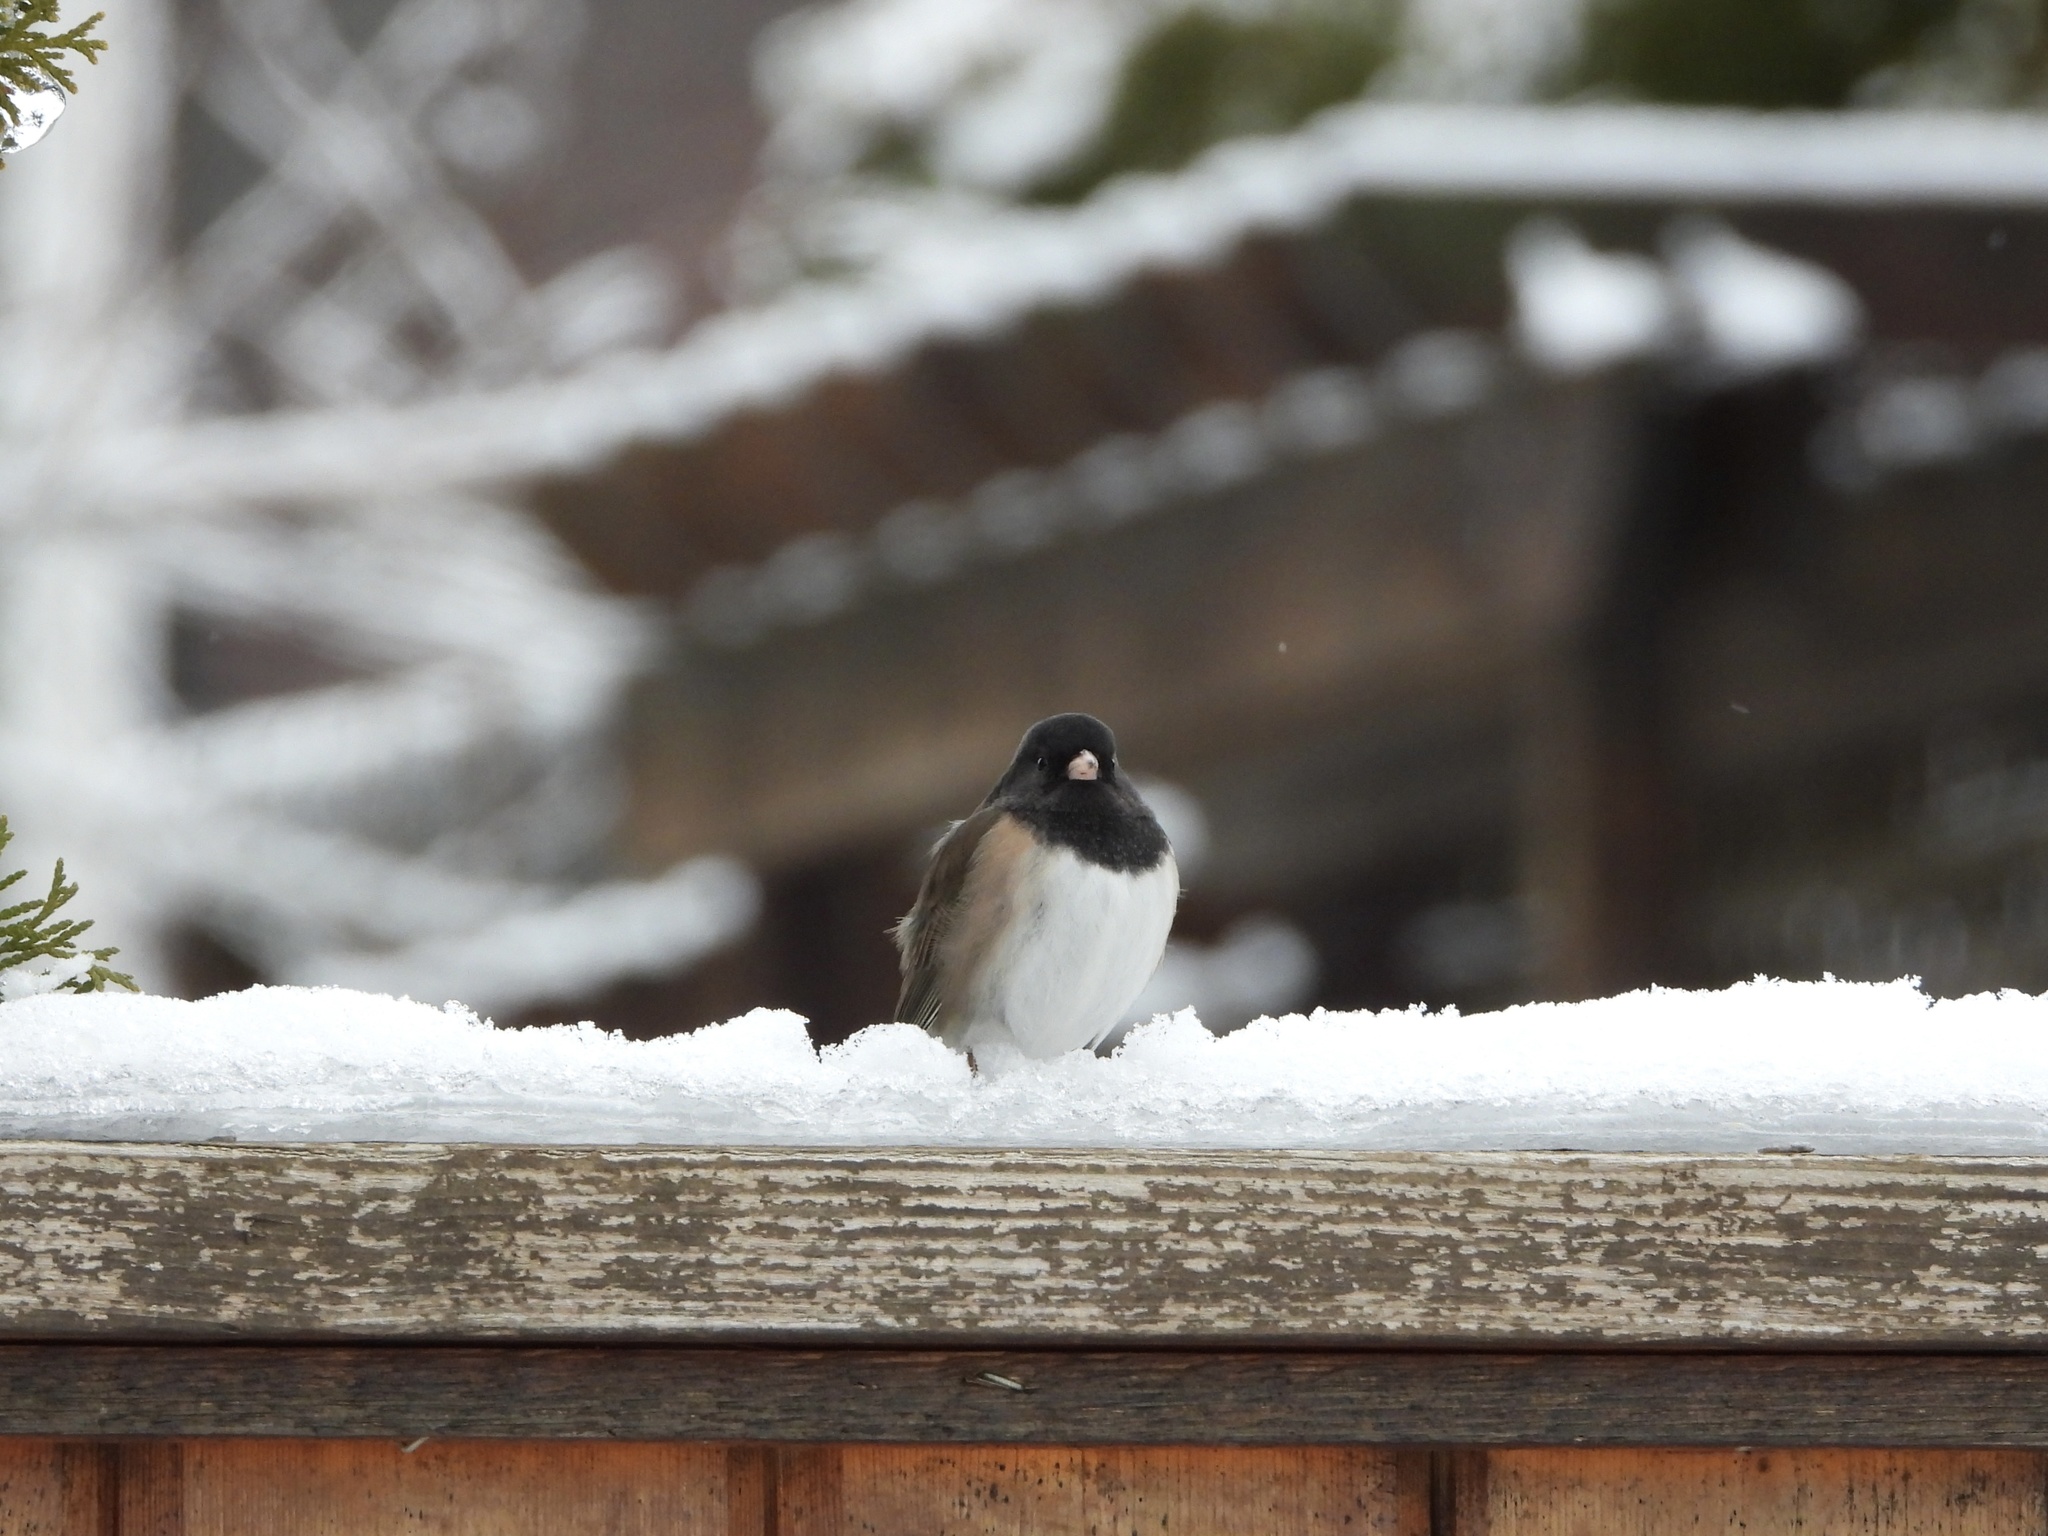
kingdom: Animalia
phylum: Chordata
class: Aves
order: Passeriformes
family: Passerellidae
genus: Junco
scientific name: Junco hyemalis
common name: Dark-eyed junco
